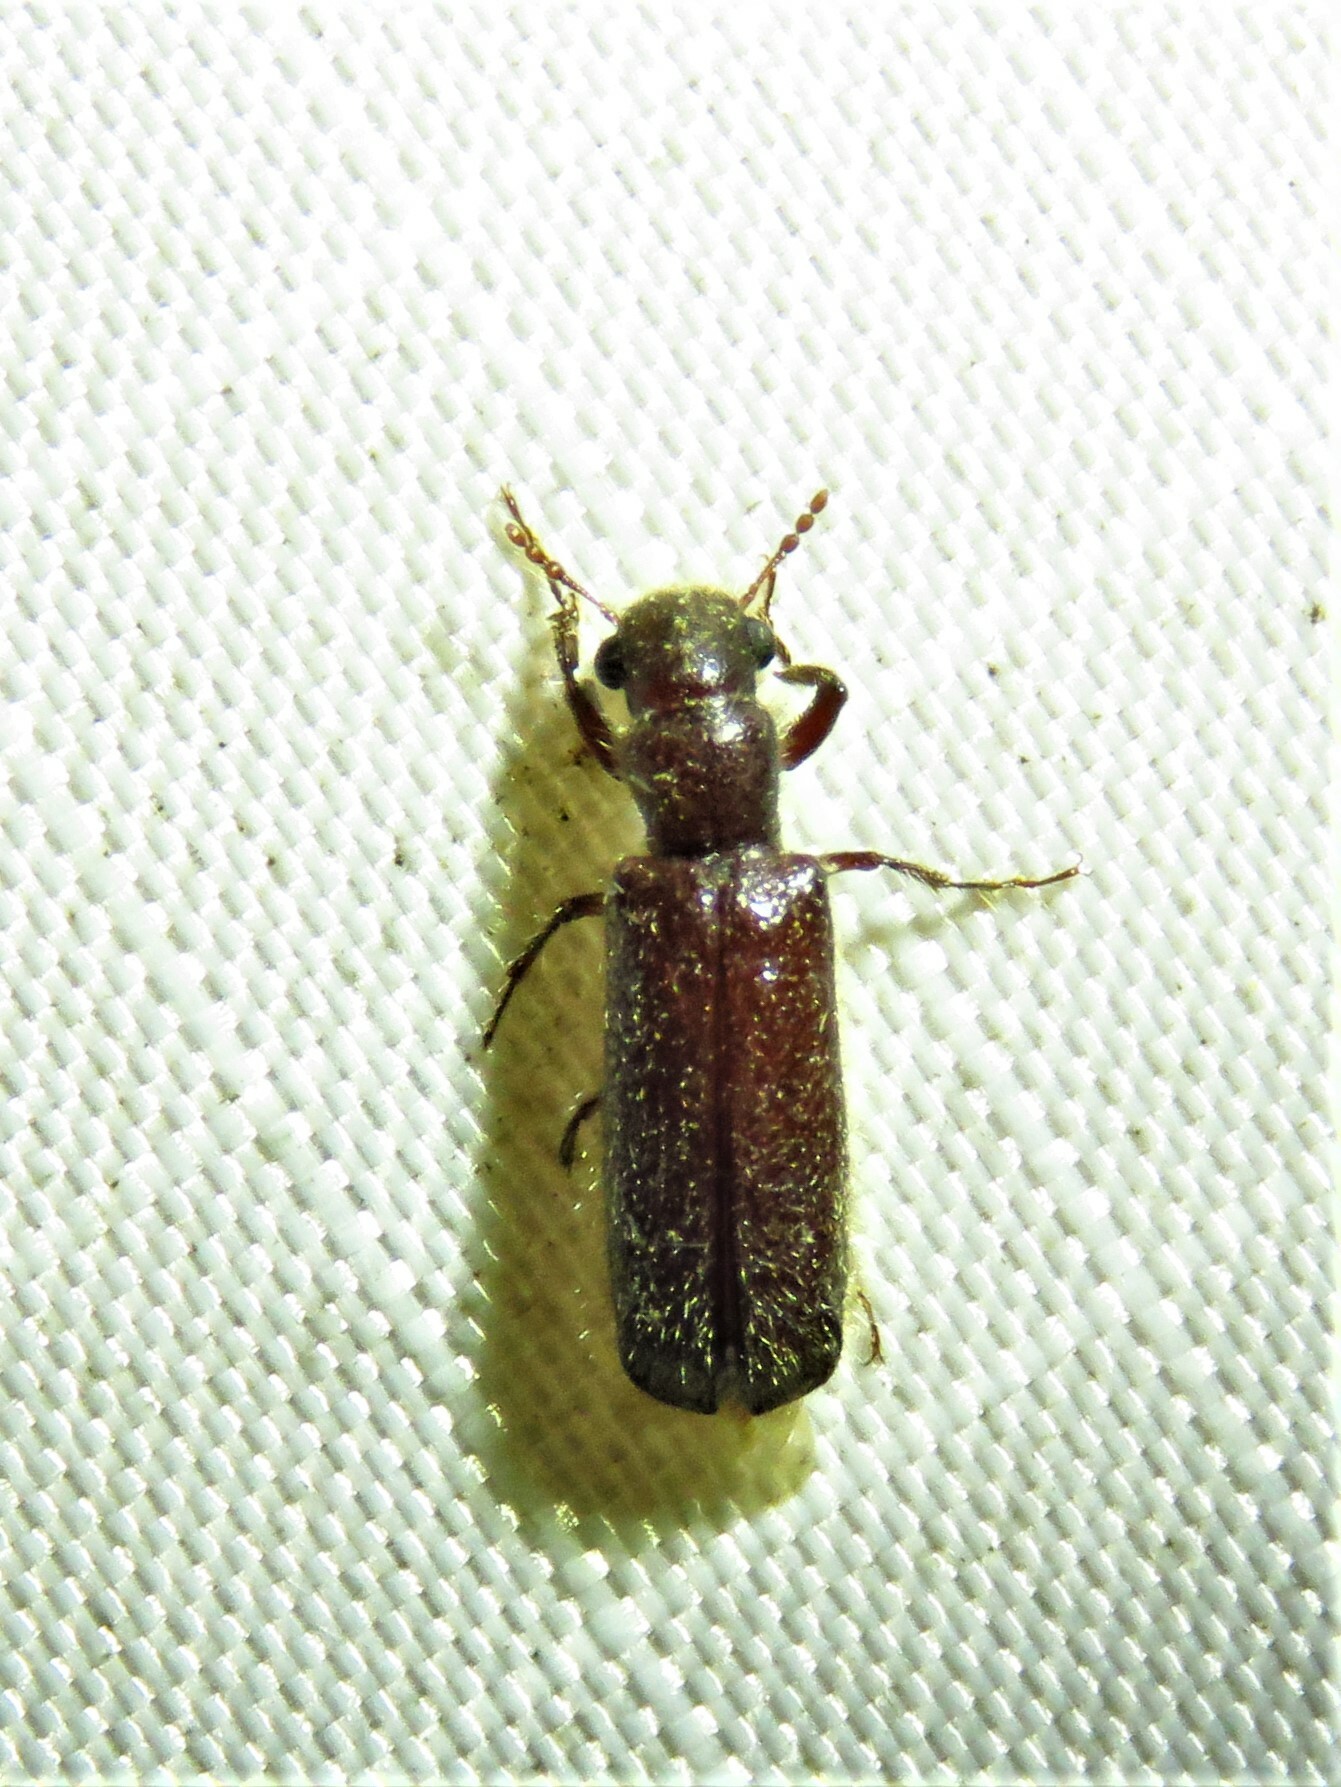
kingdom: Animalia
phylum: Arthropoda
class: Insecta
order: Coleoptera
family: Bostrichidae
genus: Melalgus
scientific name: Melalgus plicatus
